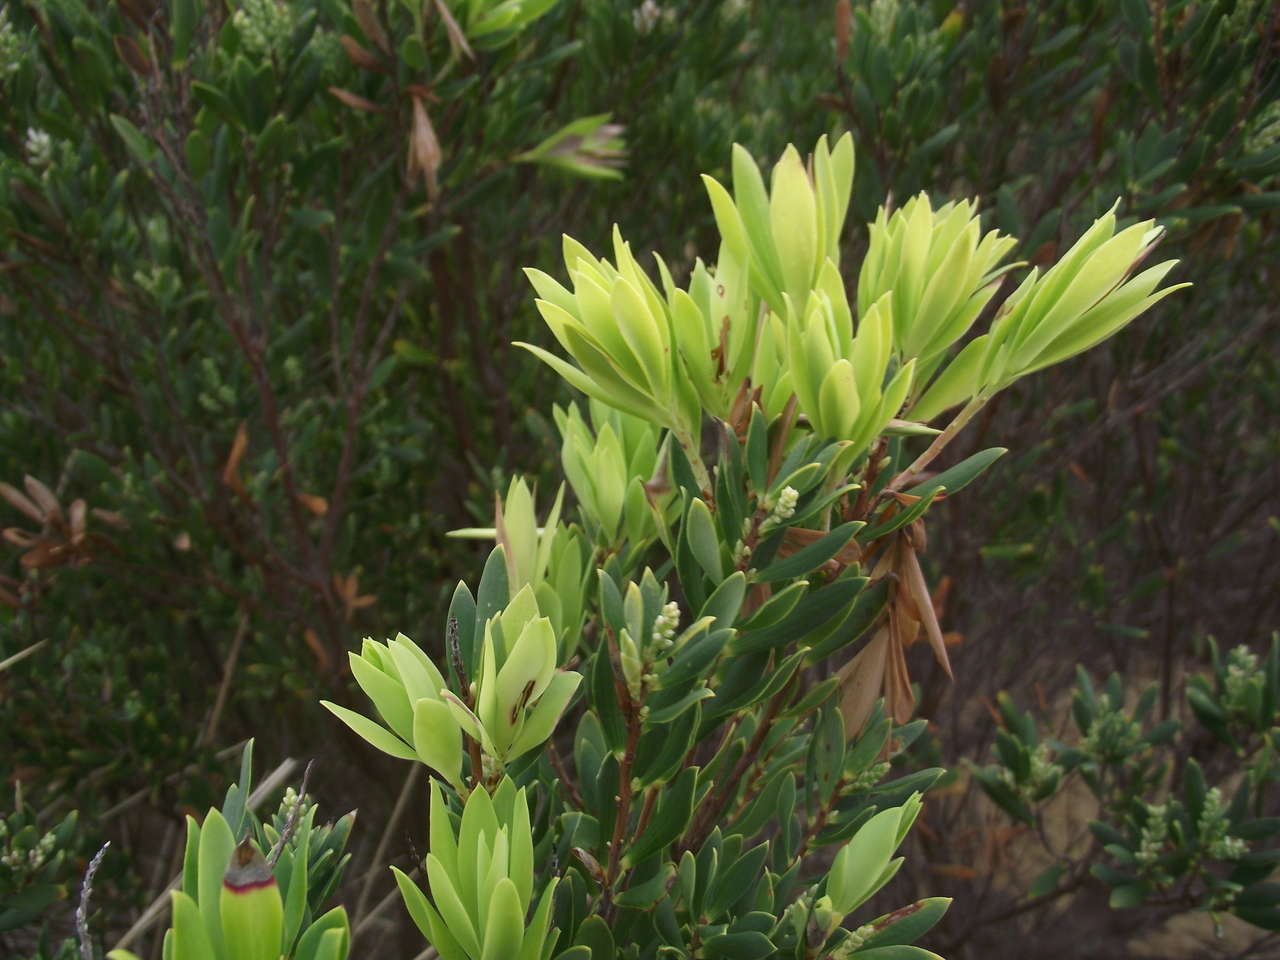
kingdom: Plantae
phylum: Tracheophyta
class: Magnoliopsida
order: Ericales
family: Ericaceae
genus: Leptecophylla
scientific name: Leptecophylla parvifolia
